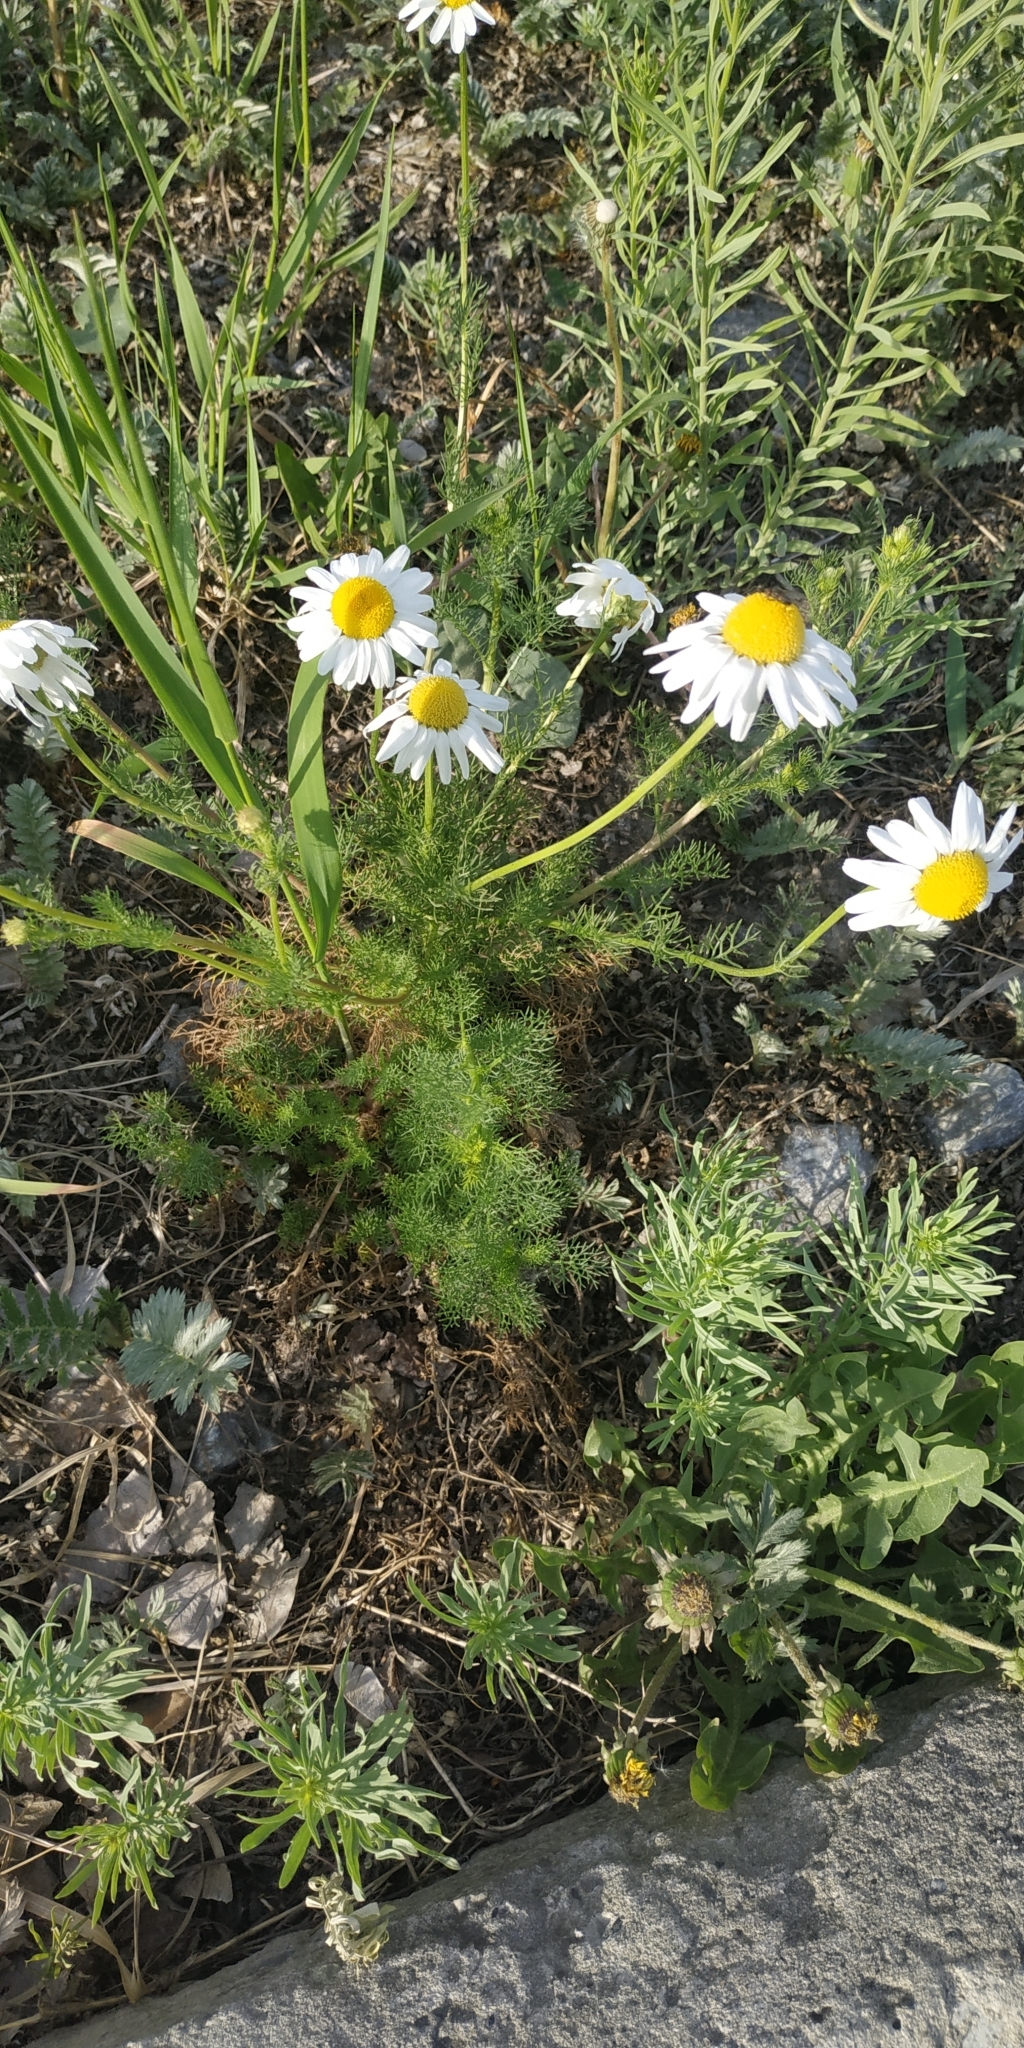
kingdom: Plantae
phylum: Tracheophyta
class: Magnoliopsida
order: Asterales
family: Asteraceae
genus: Tripleurospermum
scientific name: Tripleurospermum inodorum
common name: Scentless mayweed
